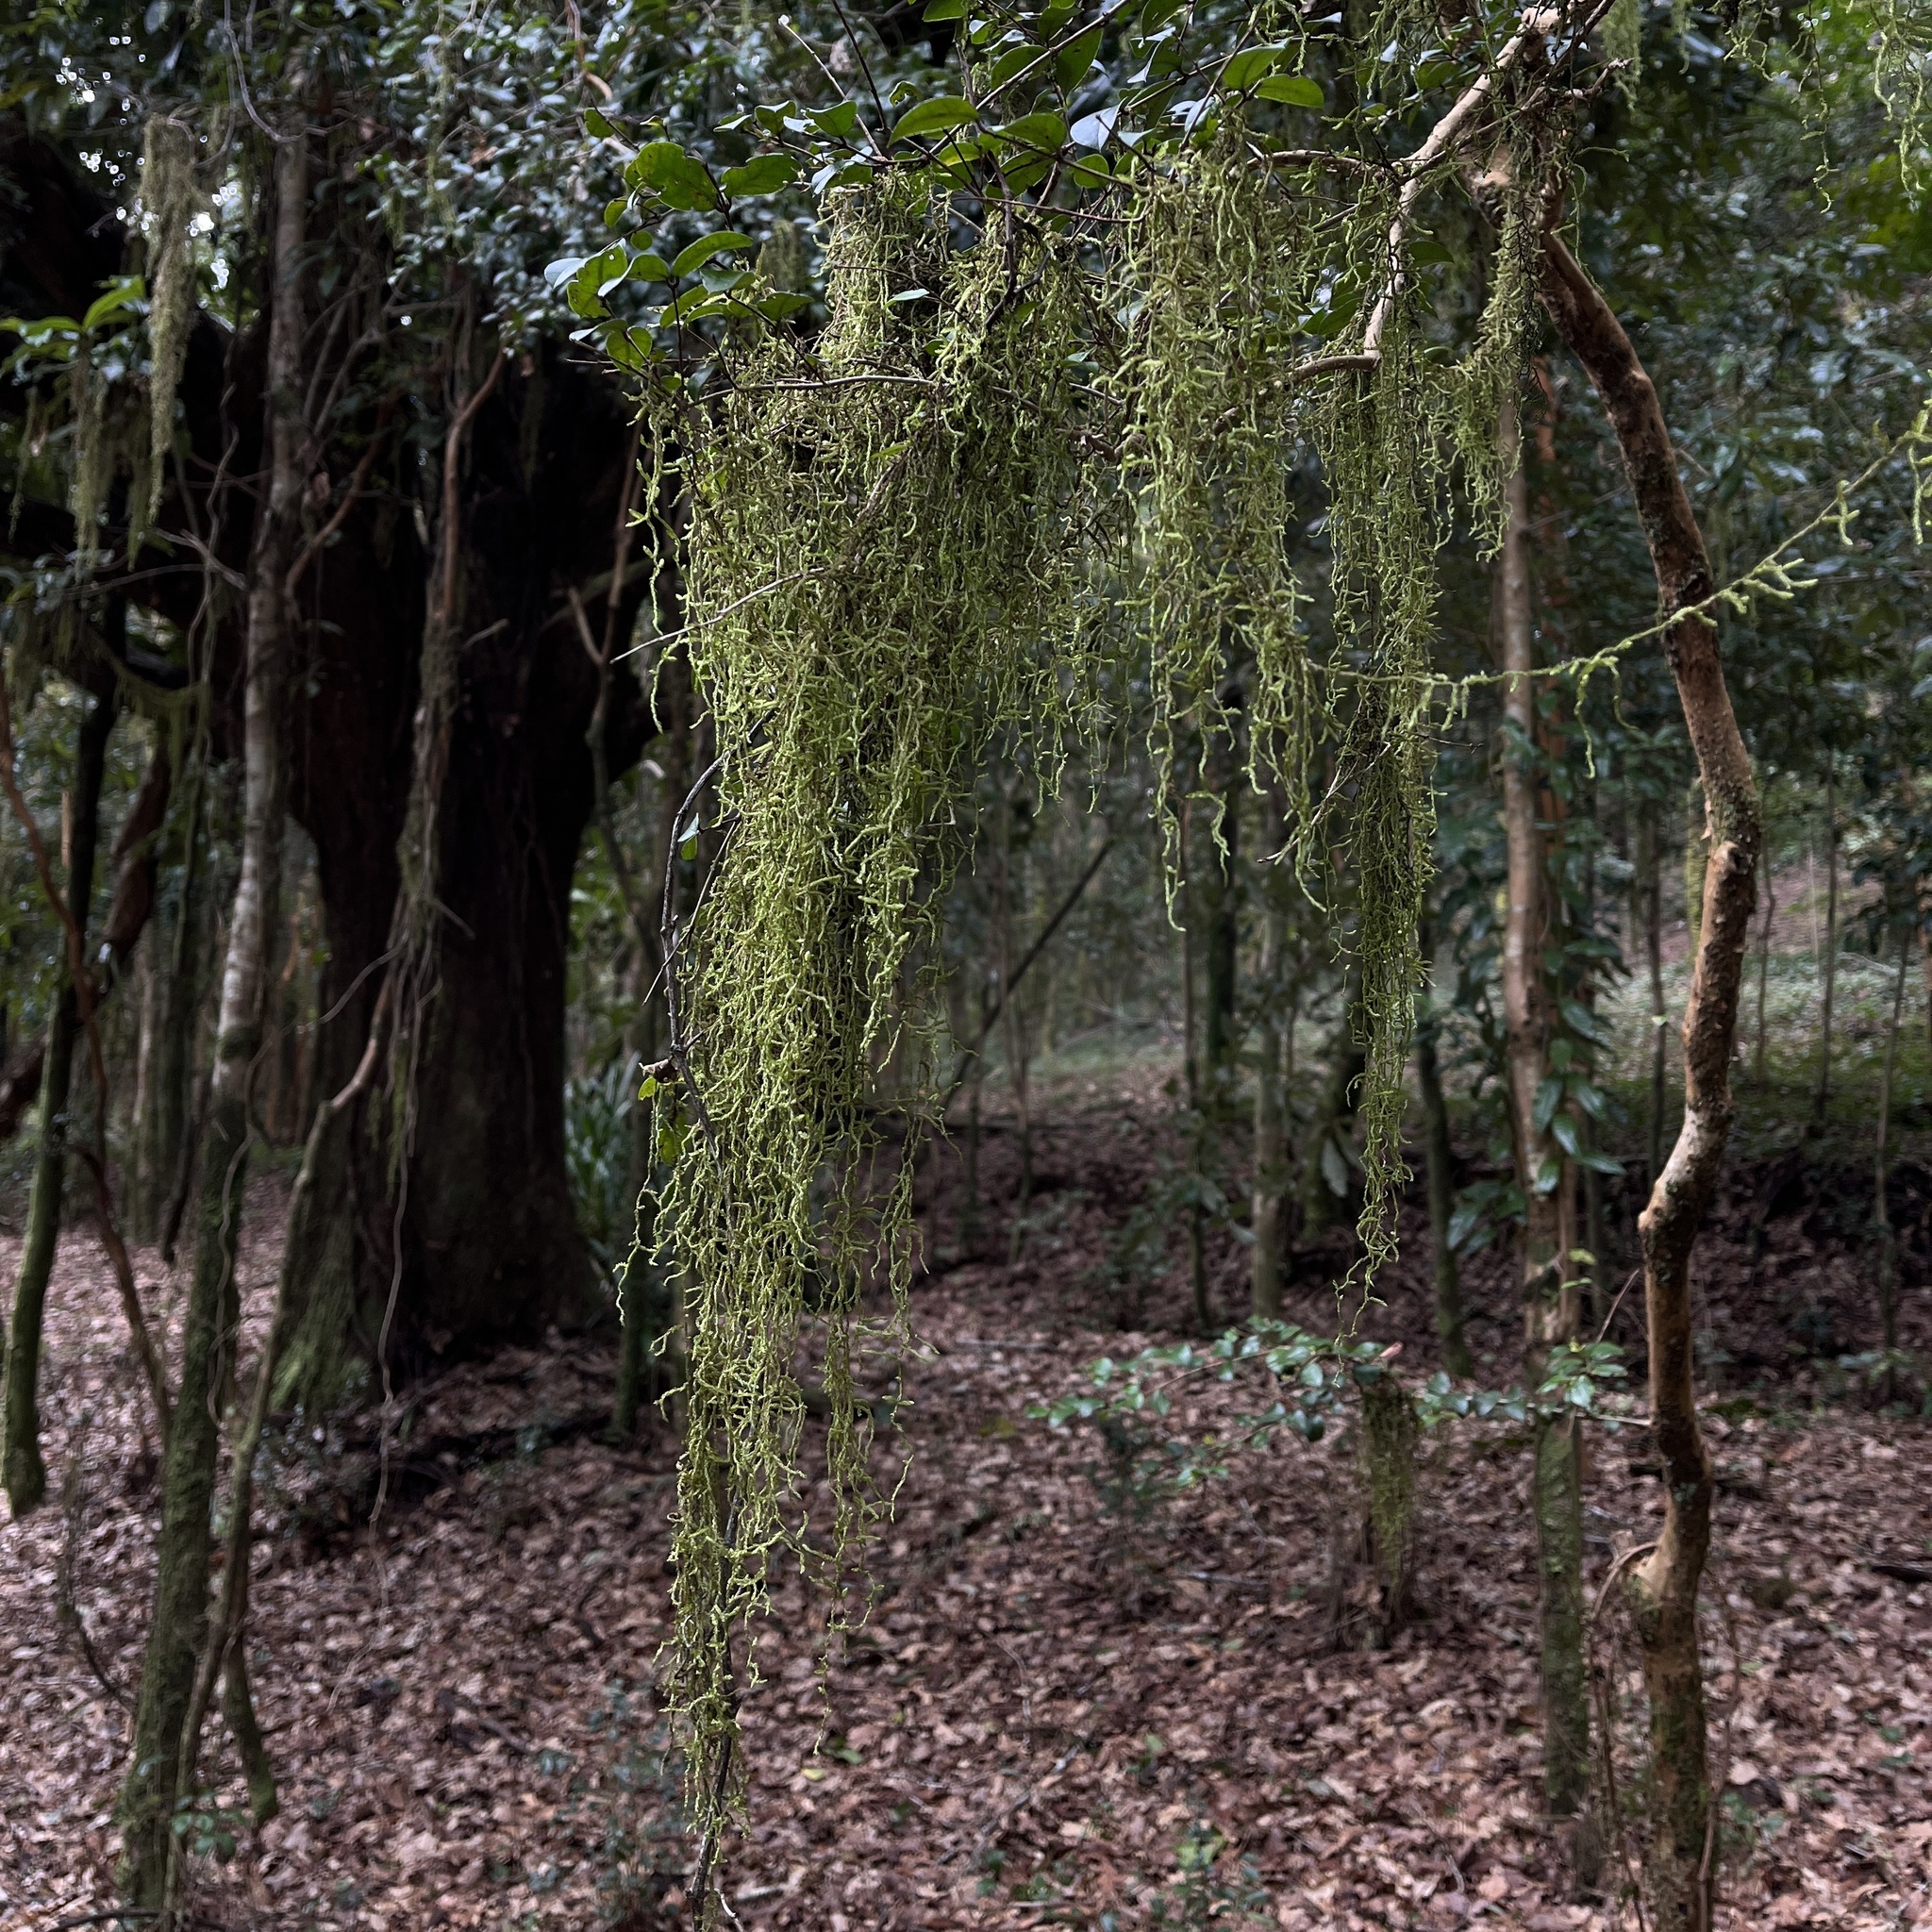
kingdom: Plantae
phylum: Bryophyta
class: Bryopsida
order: Hypnales
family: Lembophyllaceae
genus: Weymouthia
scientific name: Weymouthia mollis
